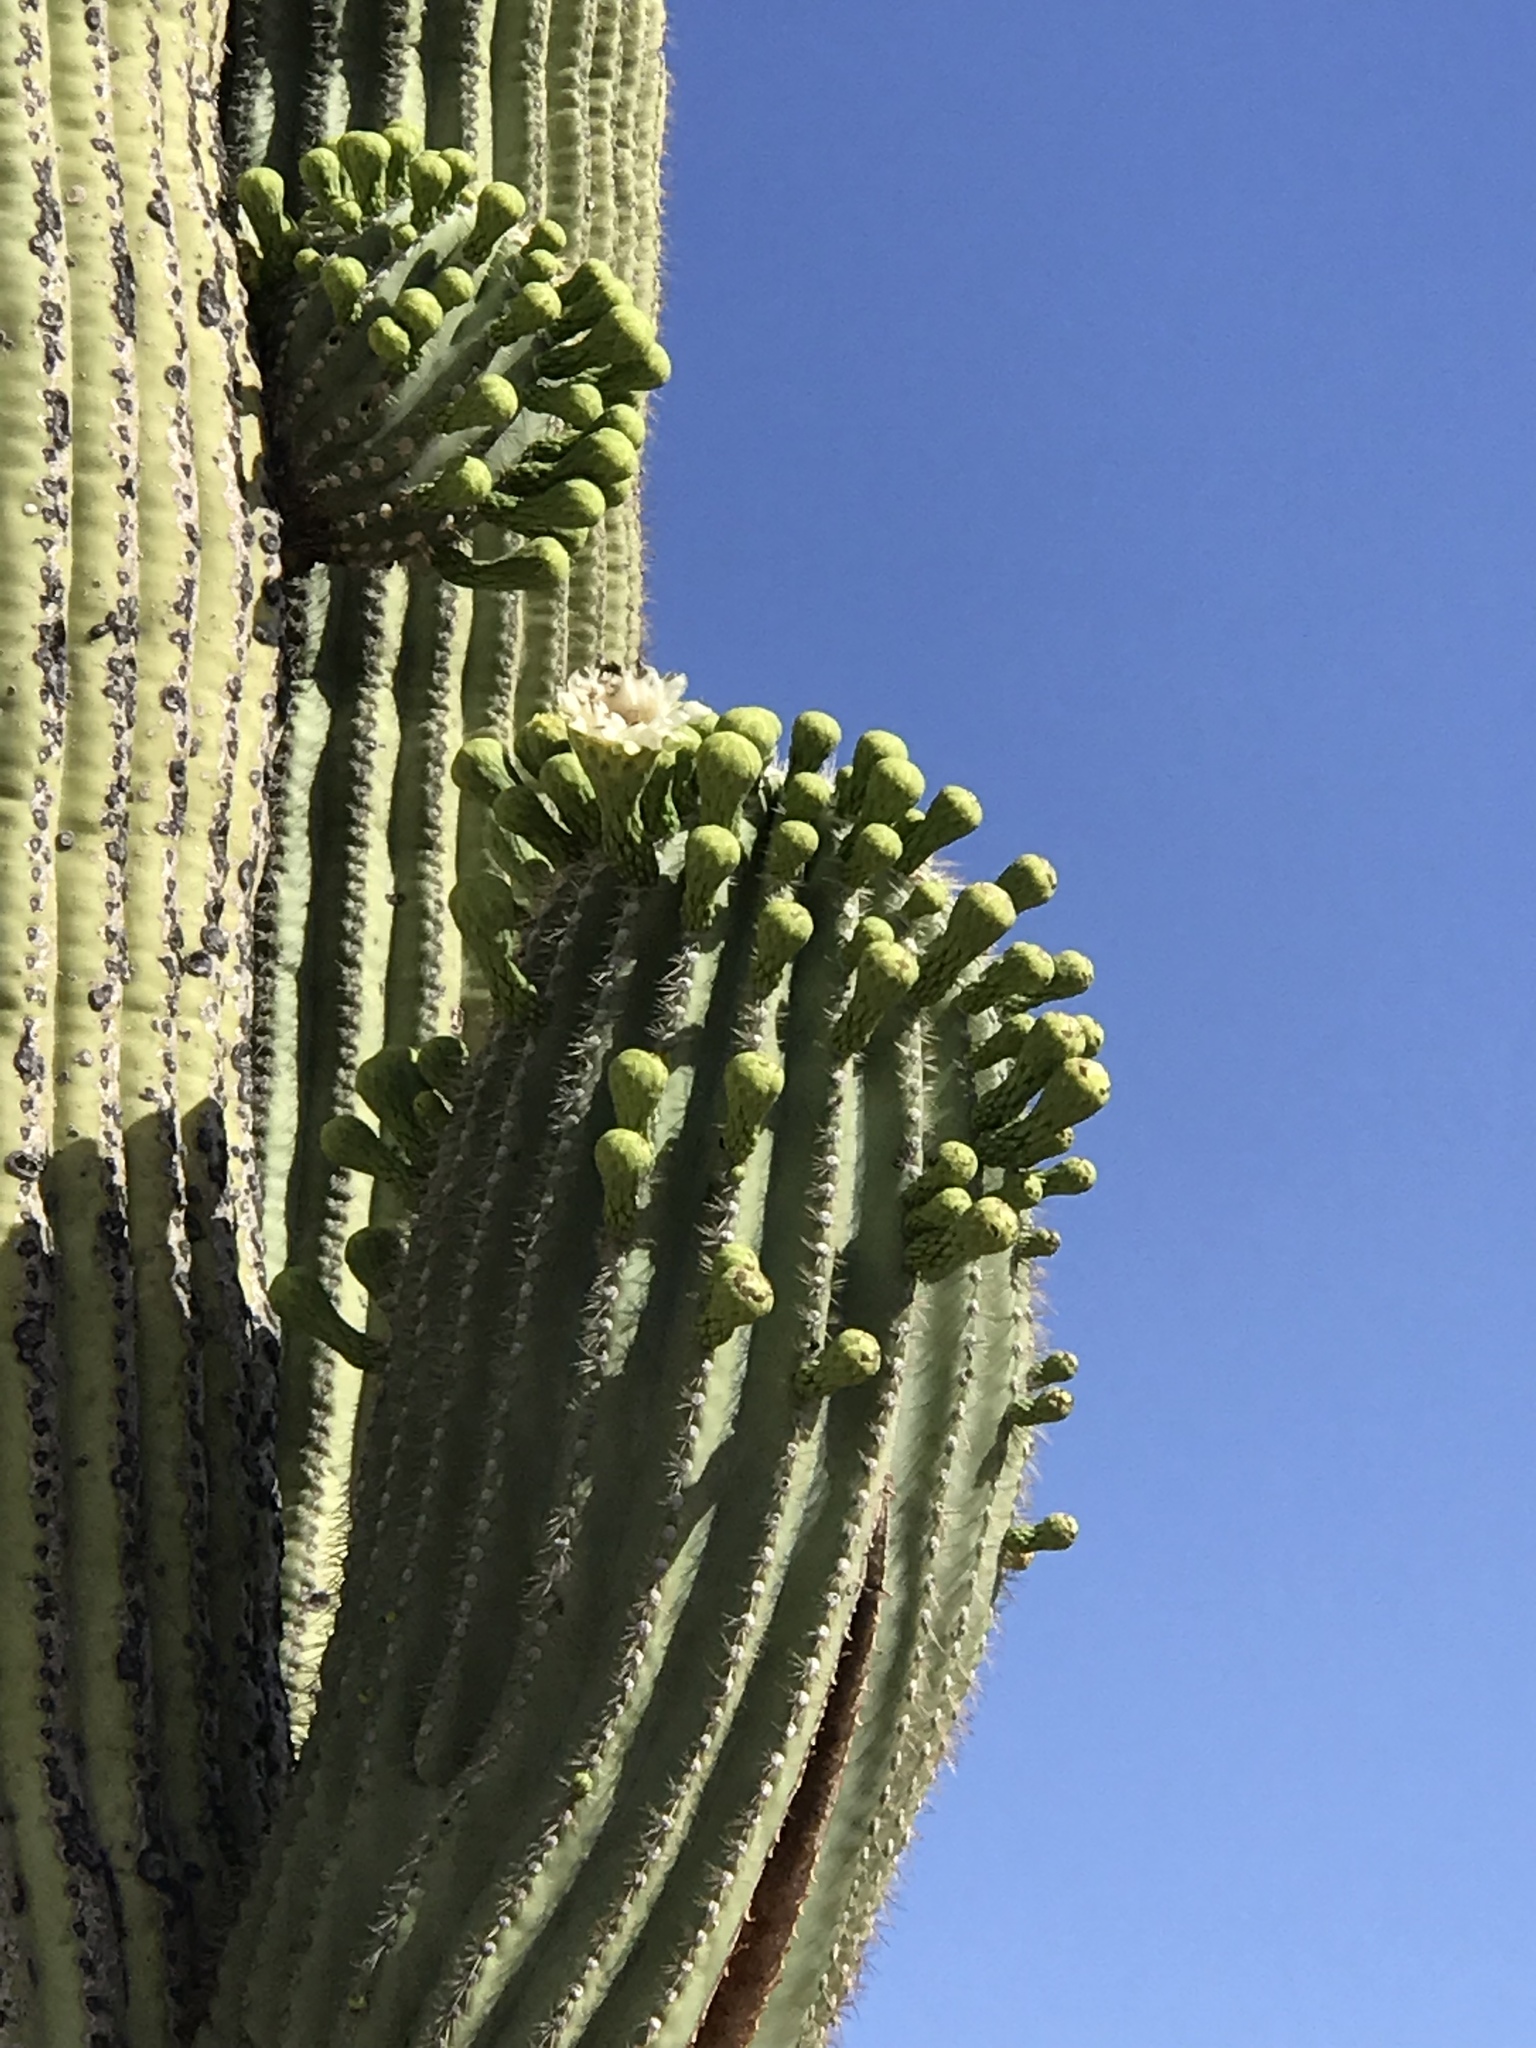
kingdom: Plantae
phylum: Tracheophyta
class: Magnoliopsida
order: Caryophyllales
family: Cactaceae
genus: Carnegiea
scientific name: Carnegiea gigantea
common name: Saguaro
